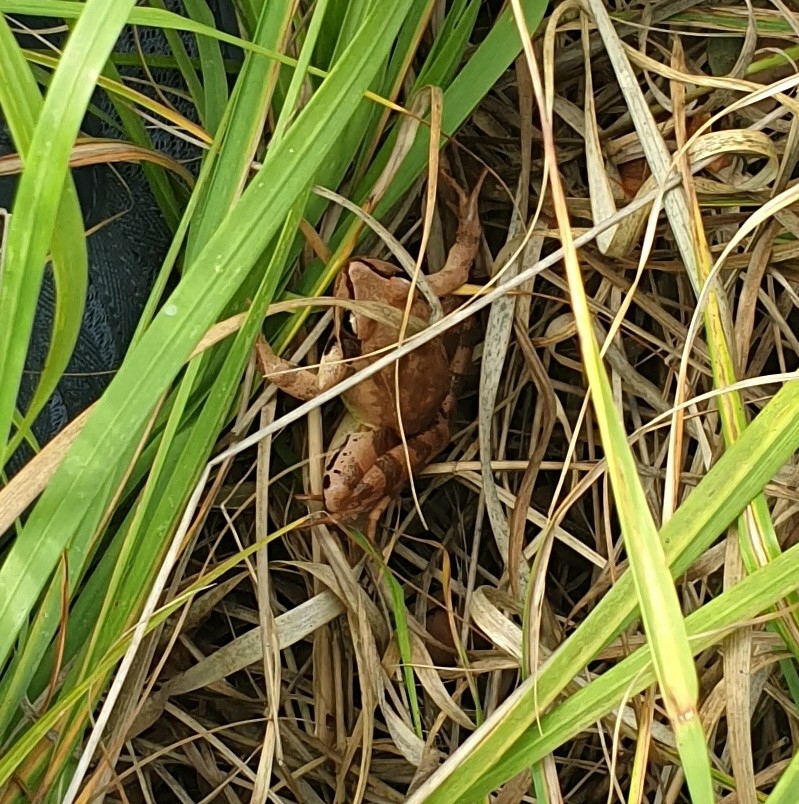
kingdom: Animalia
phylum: Chordata
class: Amphibia
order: Anura
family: Ranidae
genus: Rana
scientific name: Rana dalmatina
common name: Agile frog
